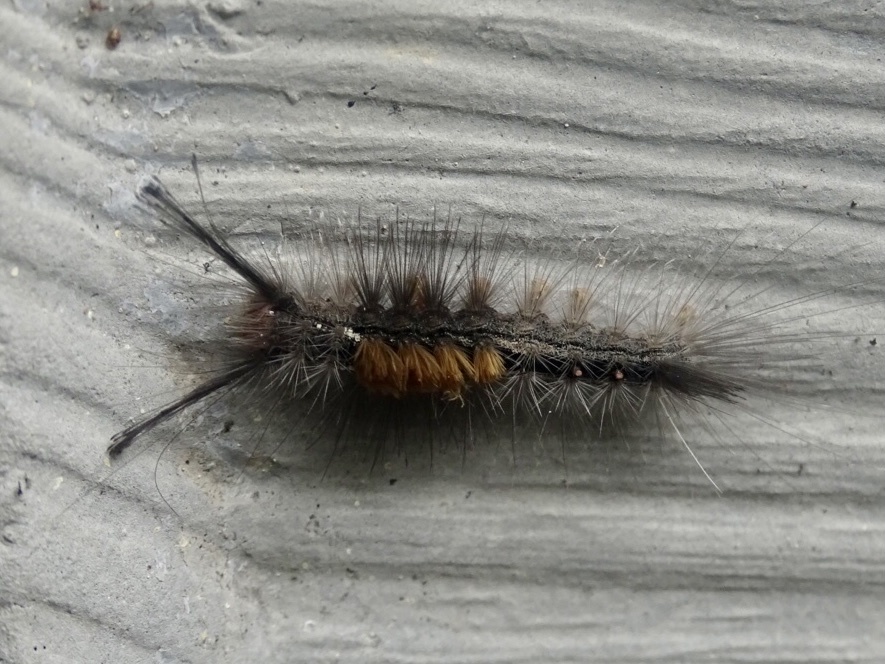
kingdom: Animalia
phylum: Arthropoda
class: Insecta
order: Lepidoptera
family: Erebidae
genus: Dasychira
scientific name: Dasychira chekiangensis
